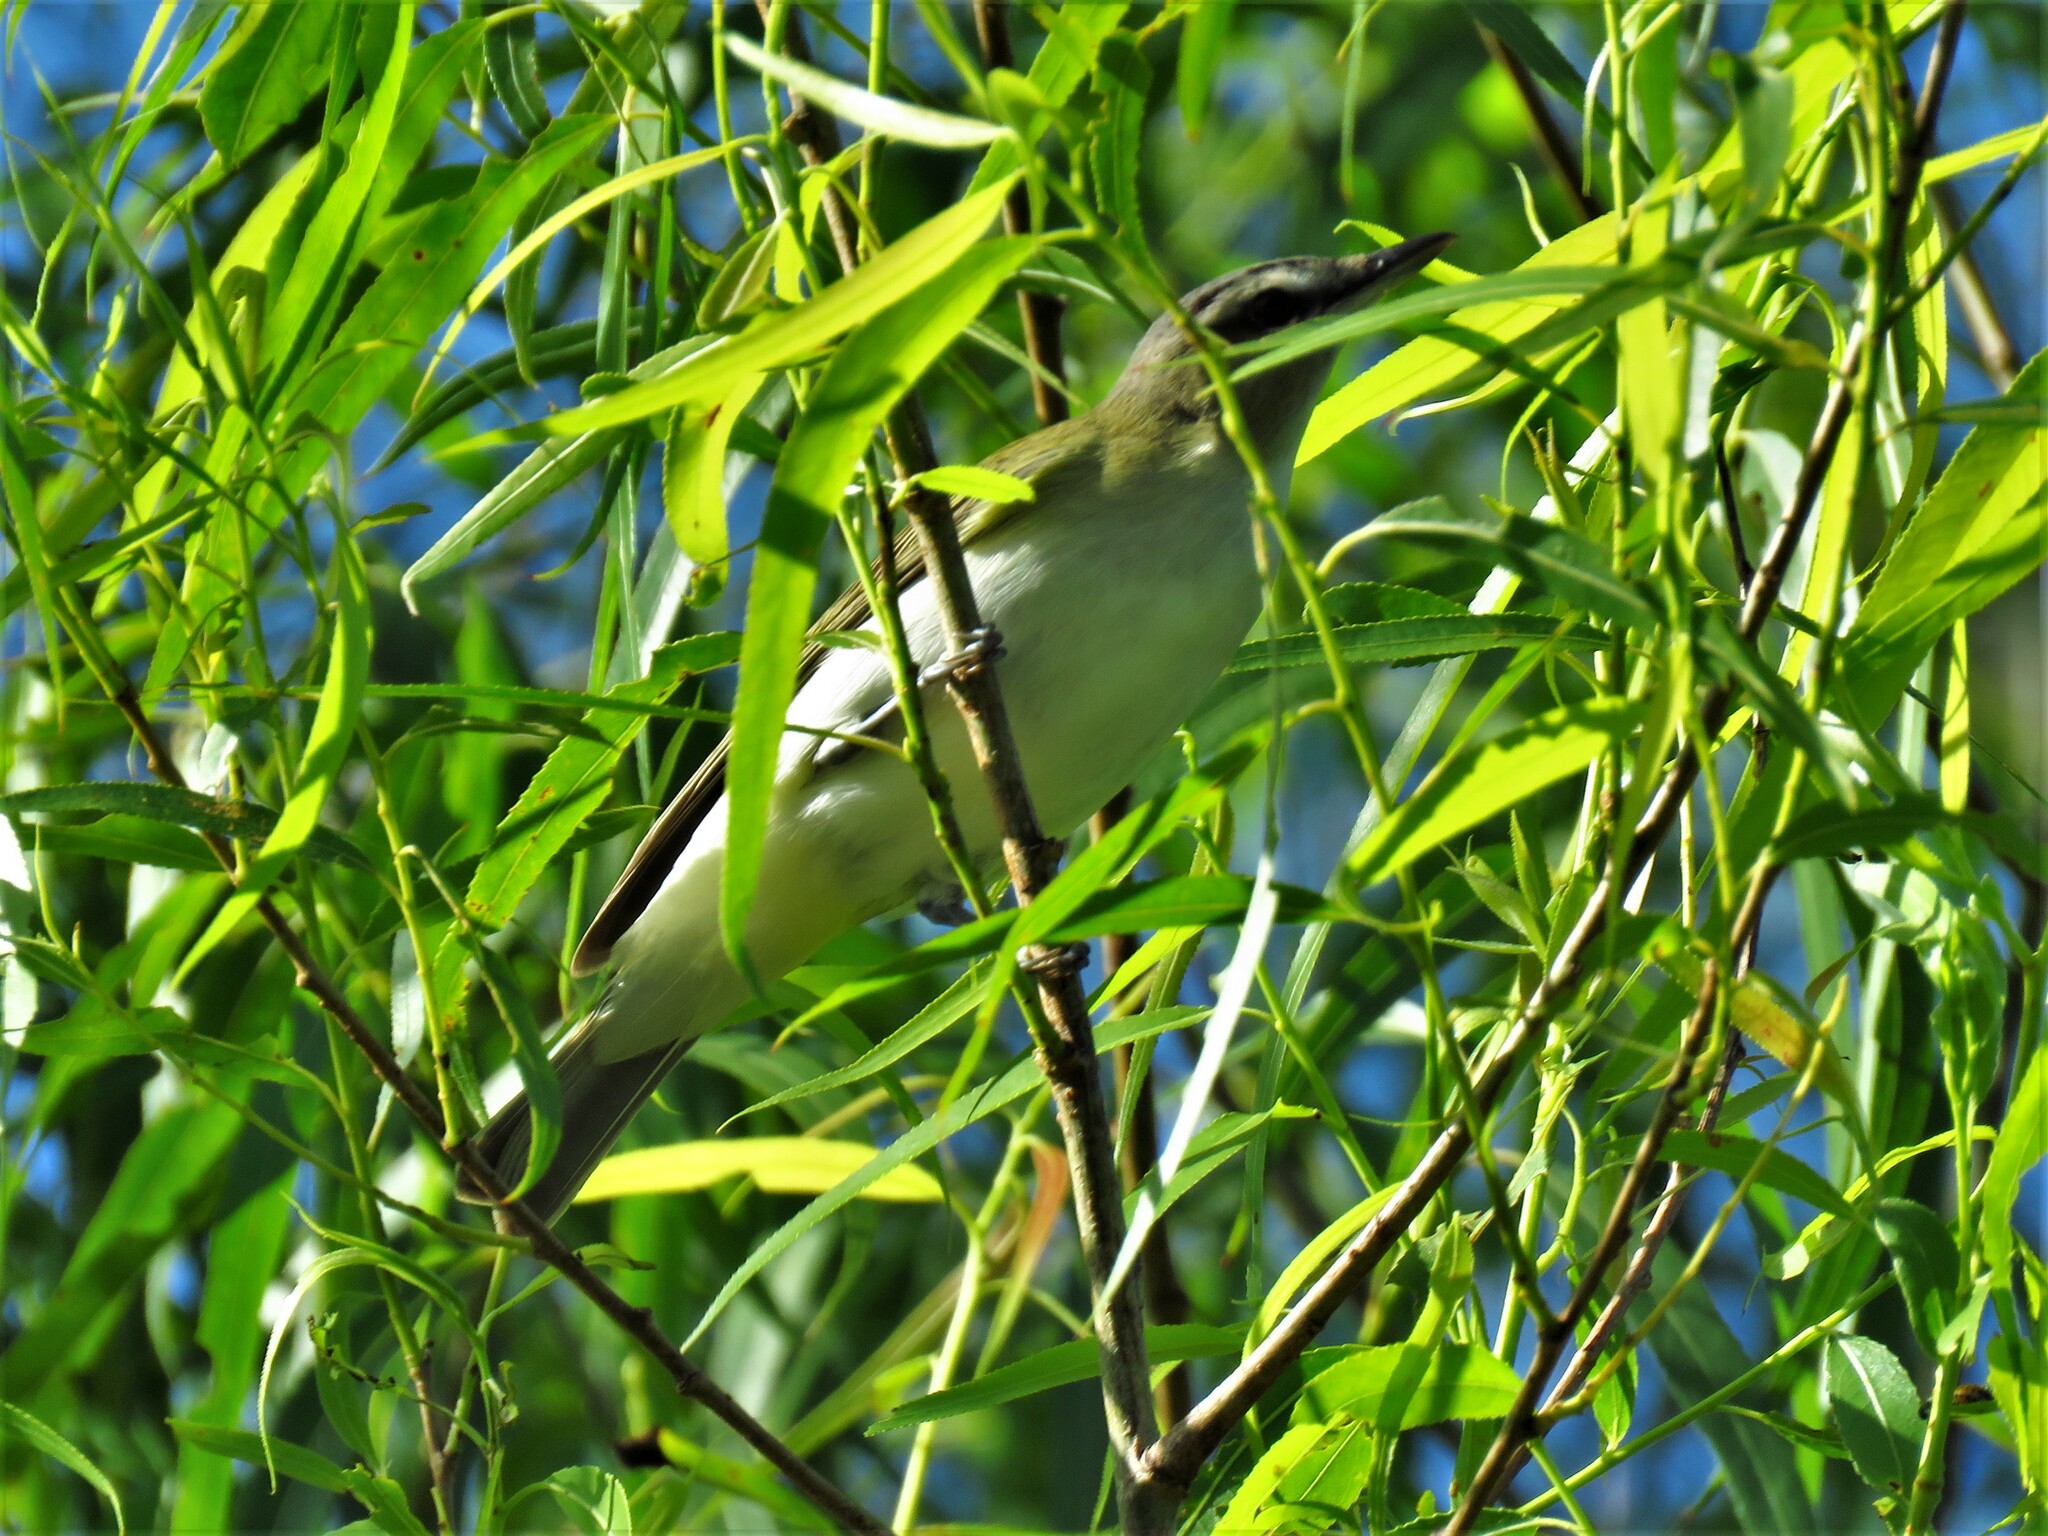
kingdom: Animalia
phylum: Chordata
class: Aves
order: Passeriformes
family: Vireonidae
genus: Vireo
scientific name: Vireo olivaceus
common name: Red-eyed vireo
